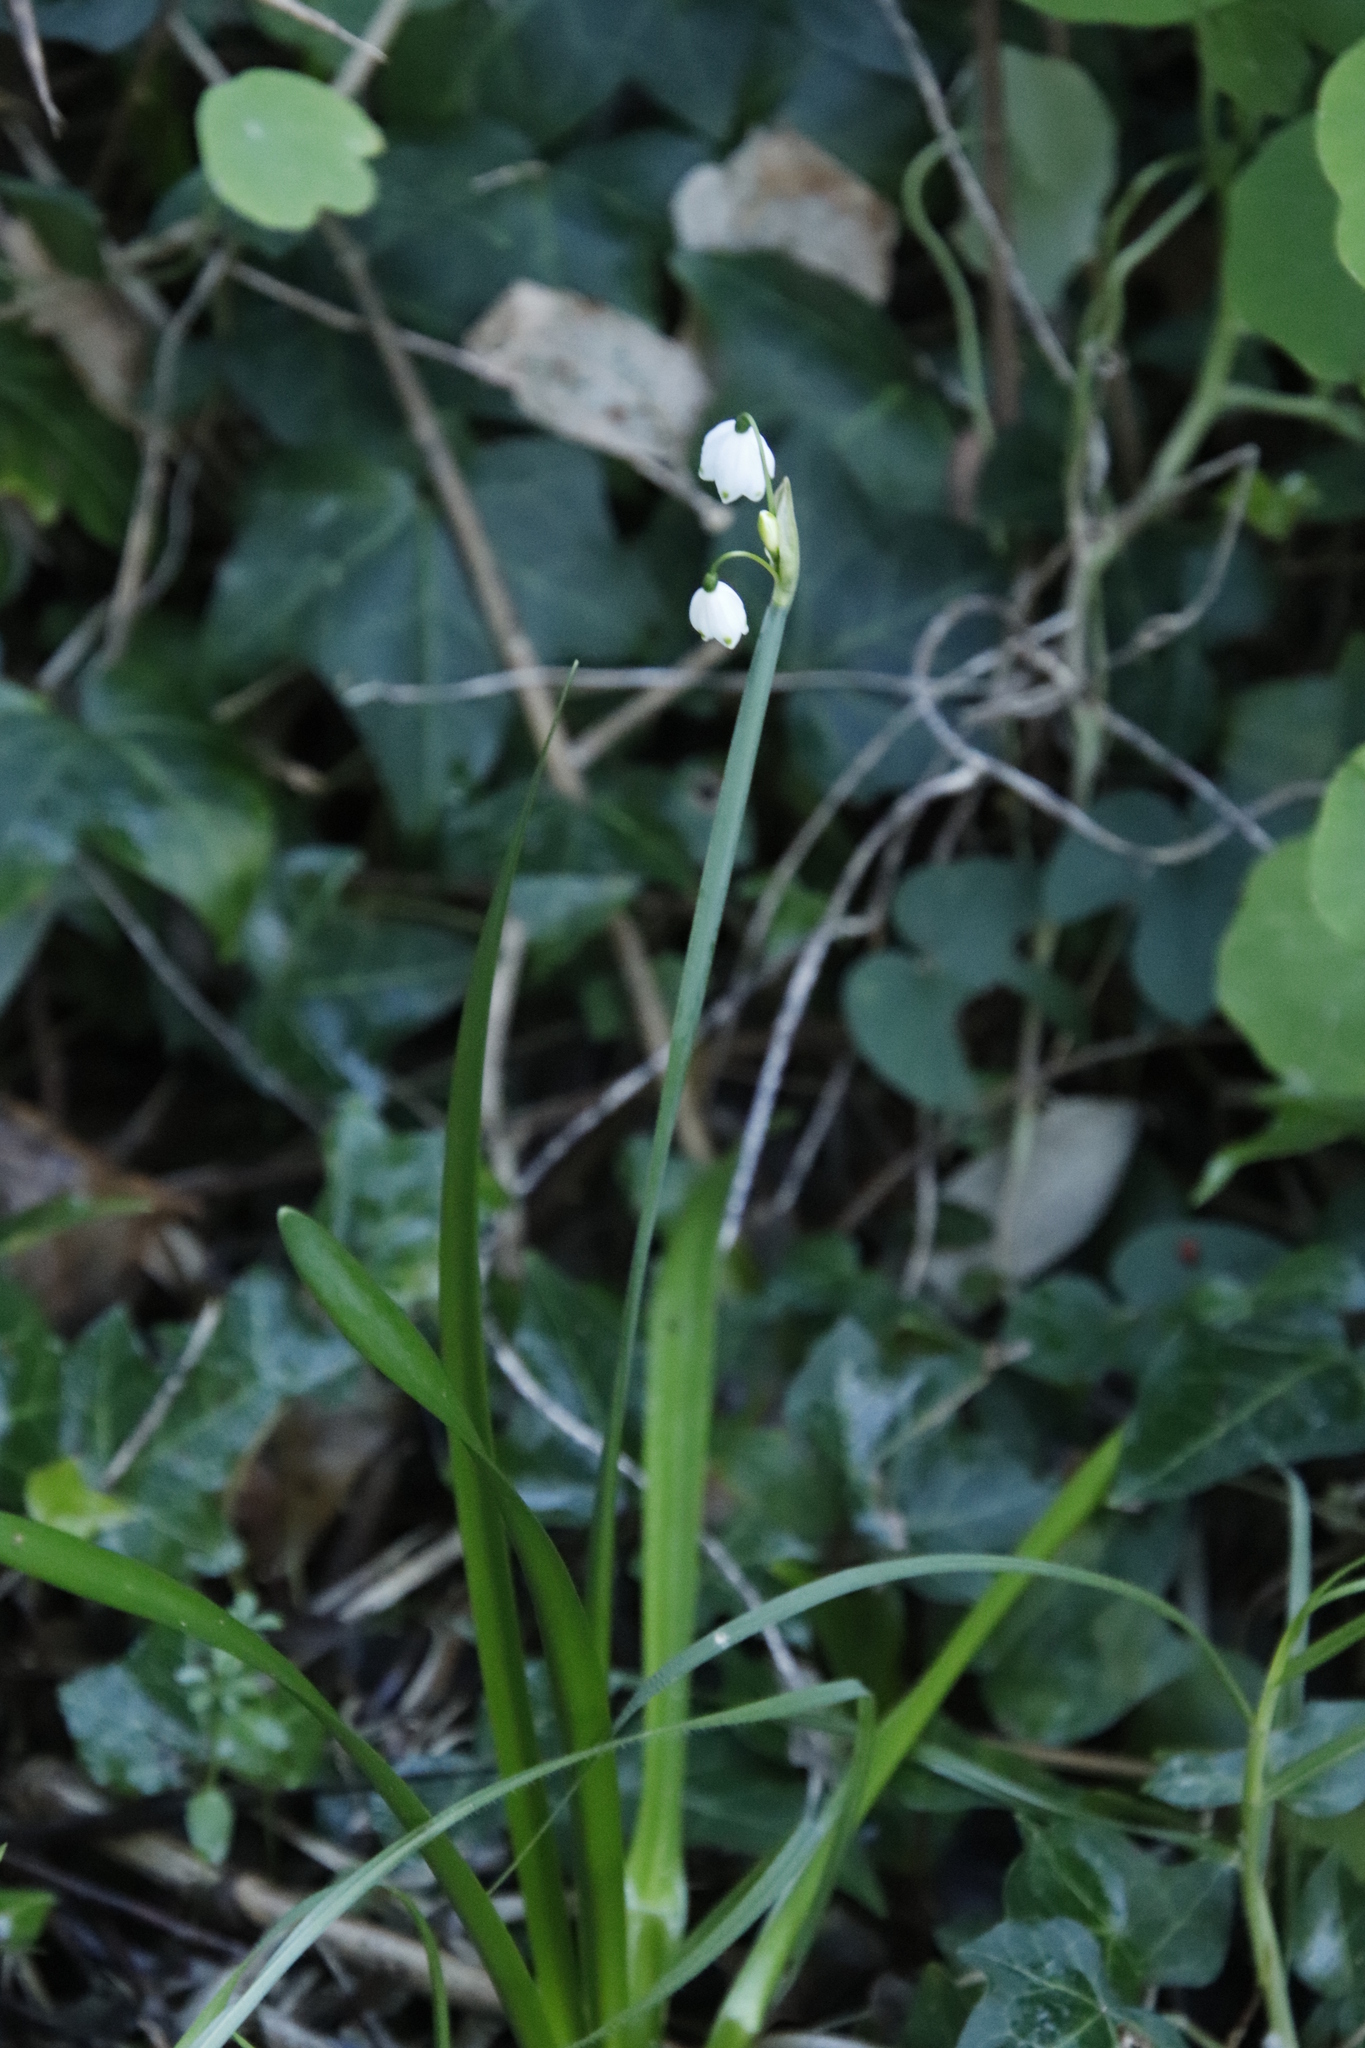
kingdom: Plantae
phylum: Tracheophyta
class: Liliopsida
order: Asparagales
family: Amaryllidaceae
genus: Leucojum
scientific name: Leucojum aestivum
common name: Summer snowflake
